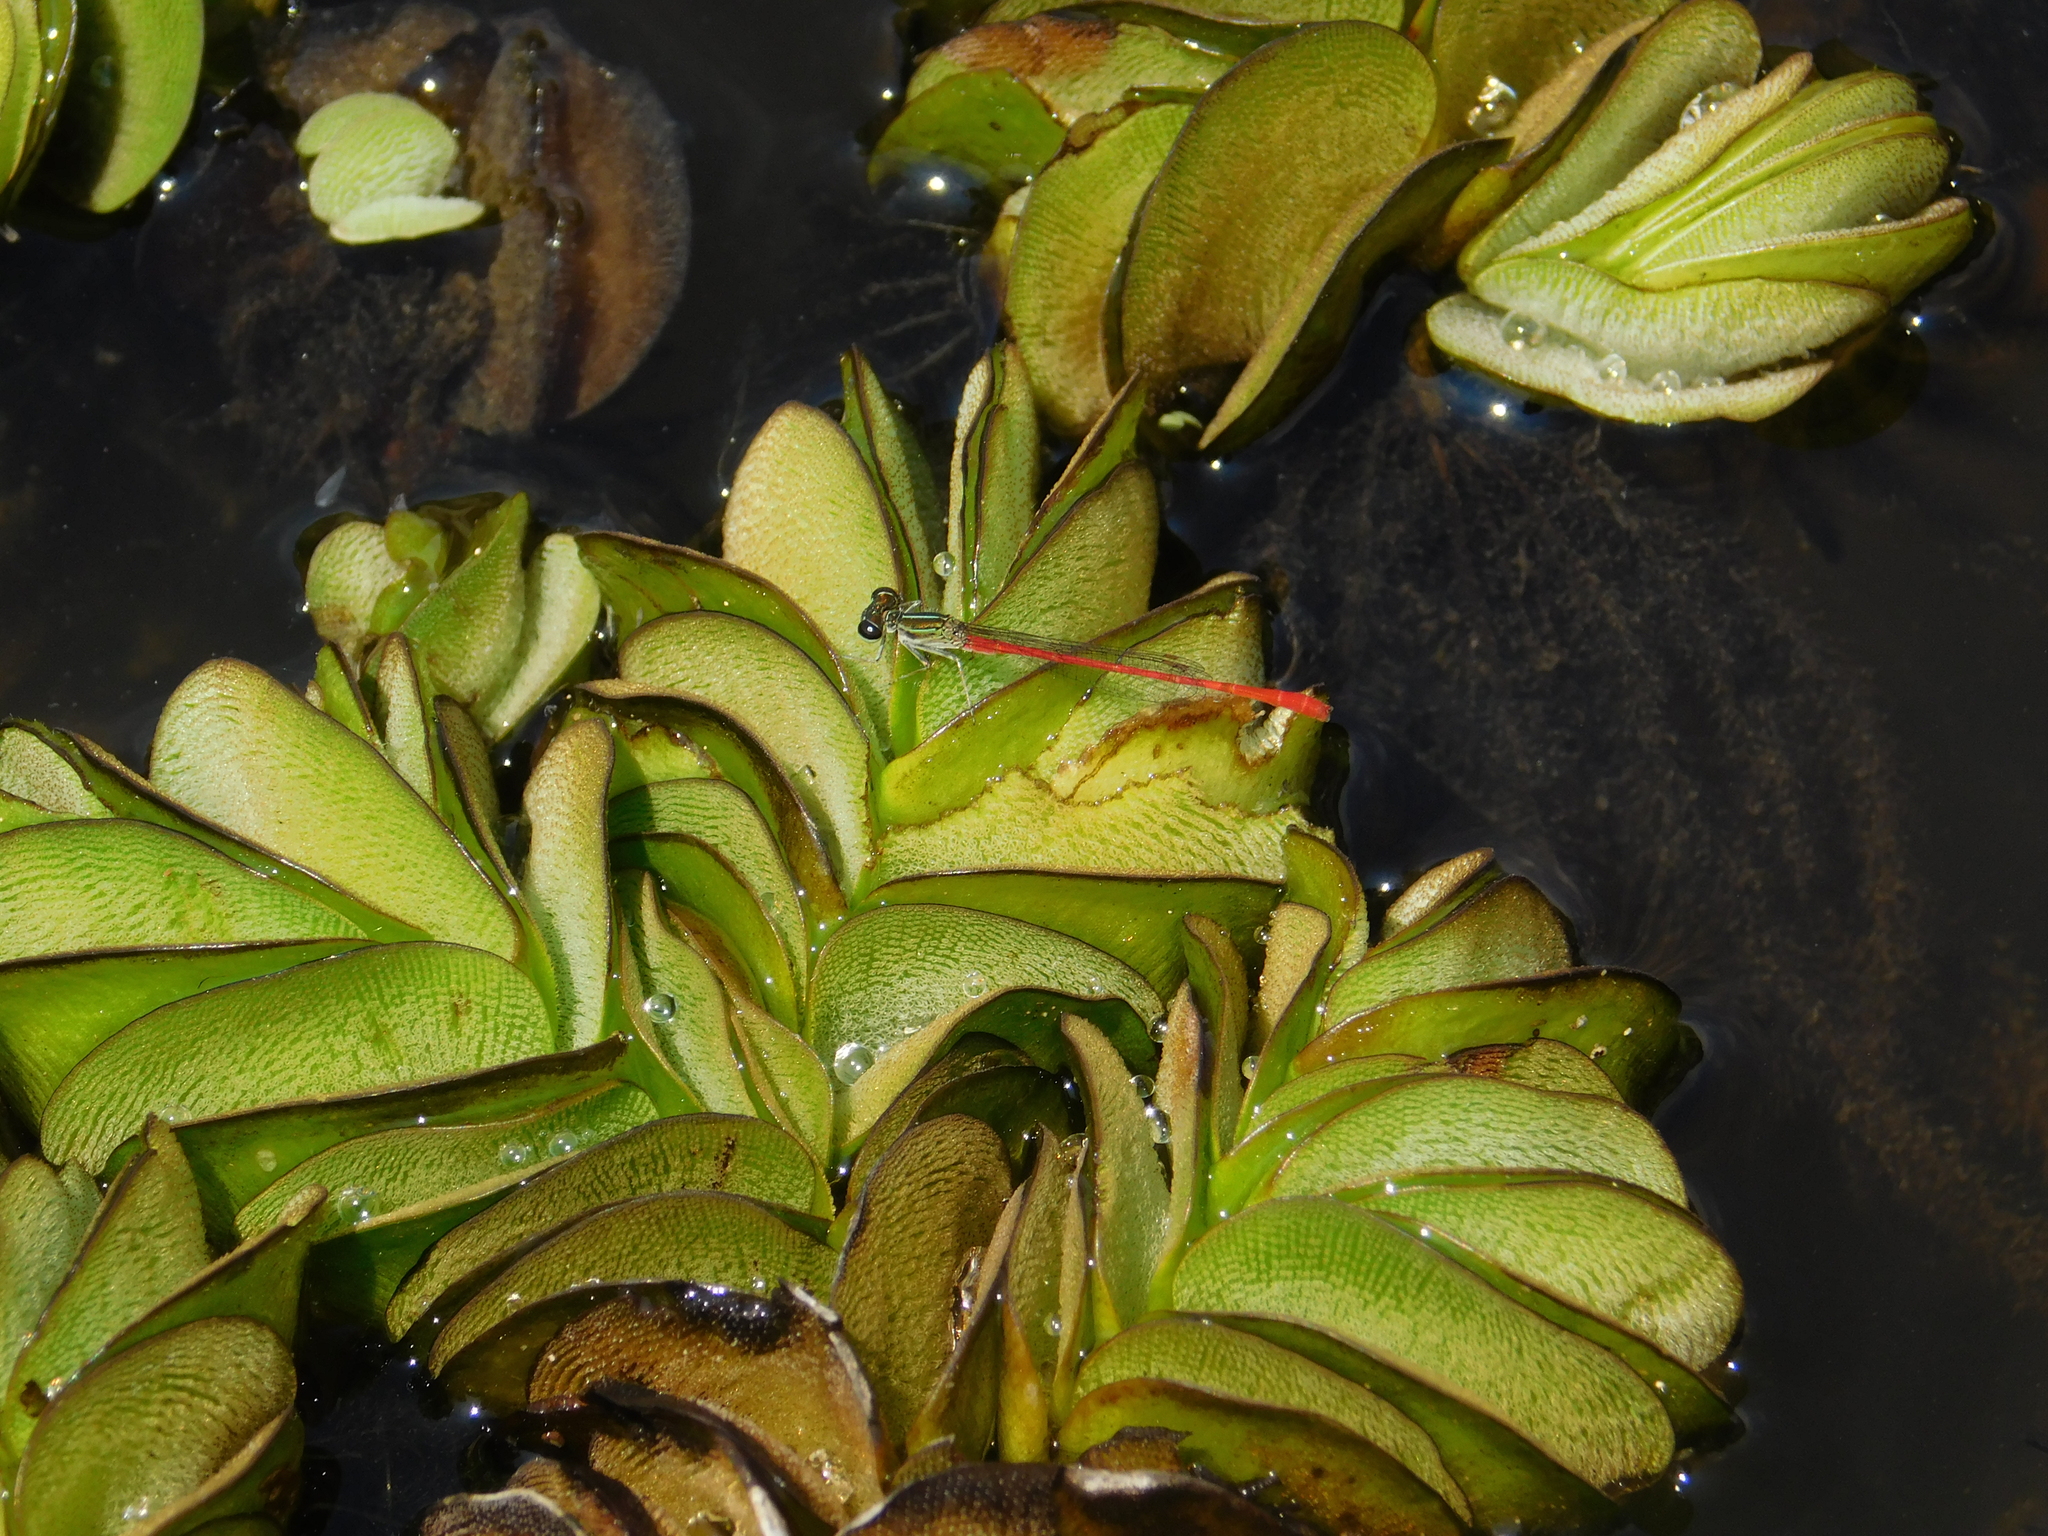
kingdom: Animalia
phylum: Arthropoda
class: Insecta
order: Odonata
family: Coenagrionidae
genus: Telebasis
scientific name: Telebasis willinki
